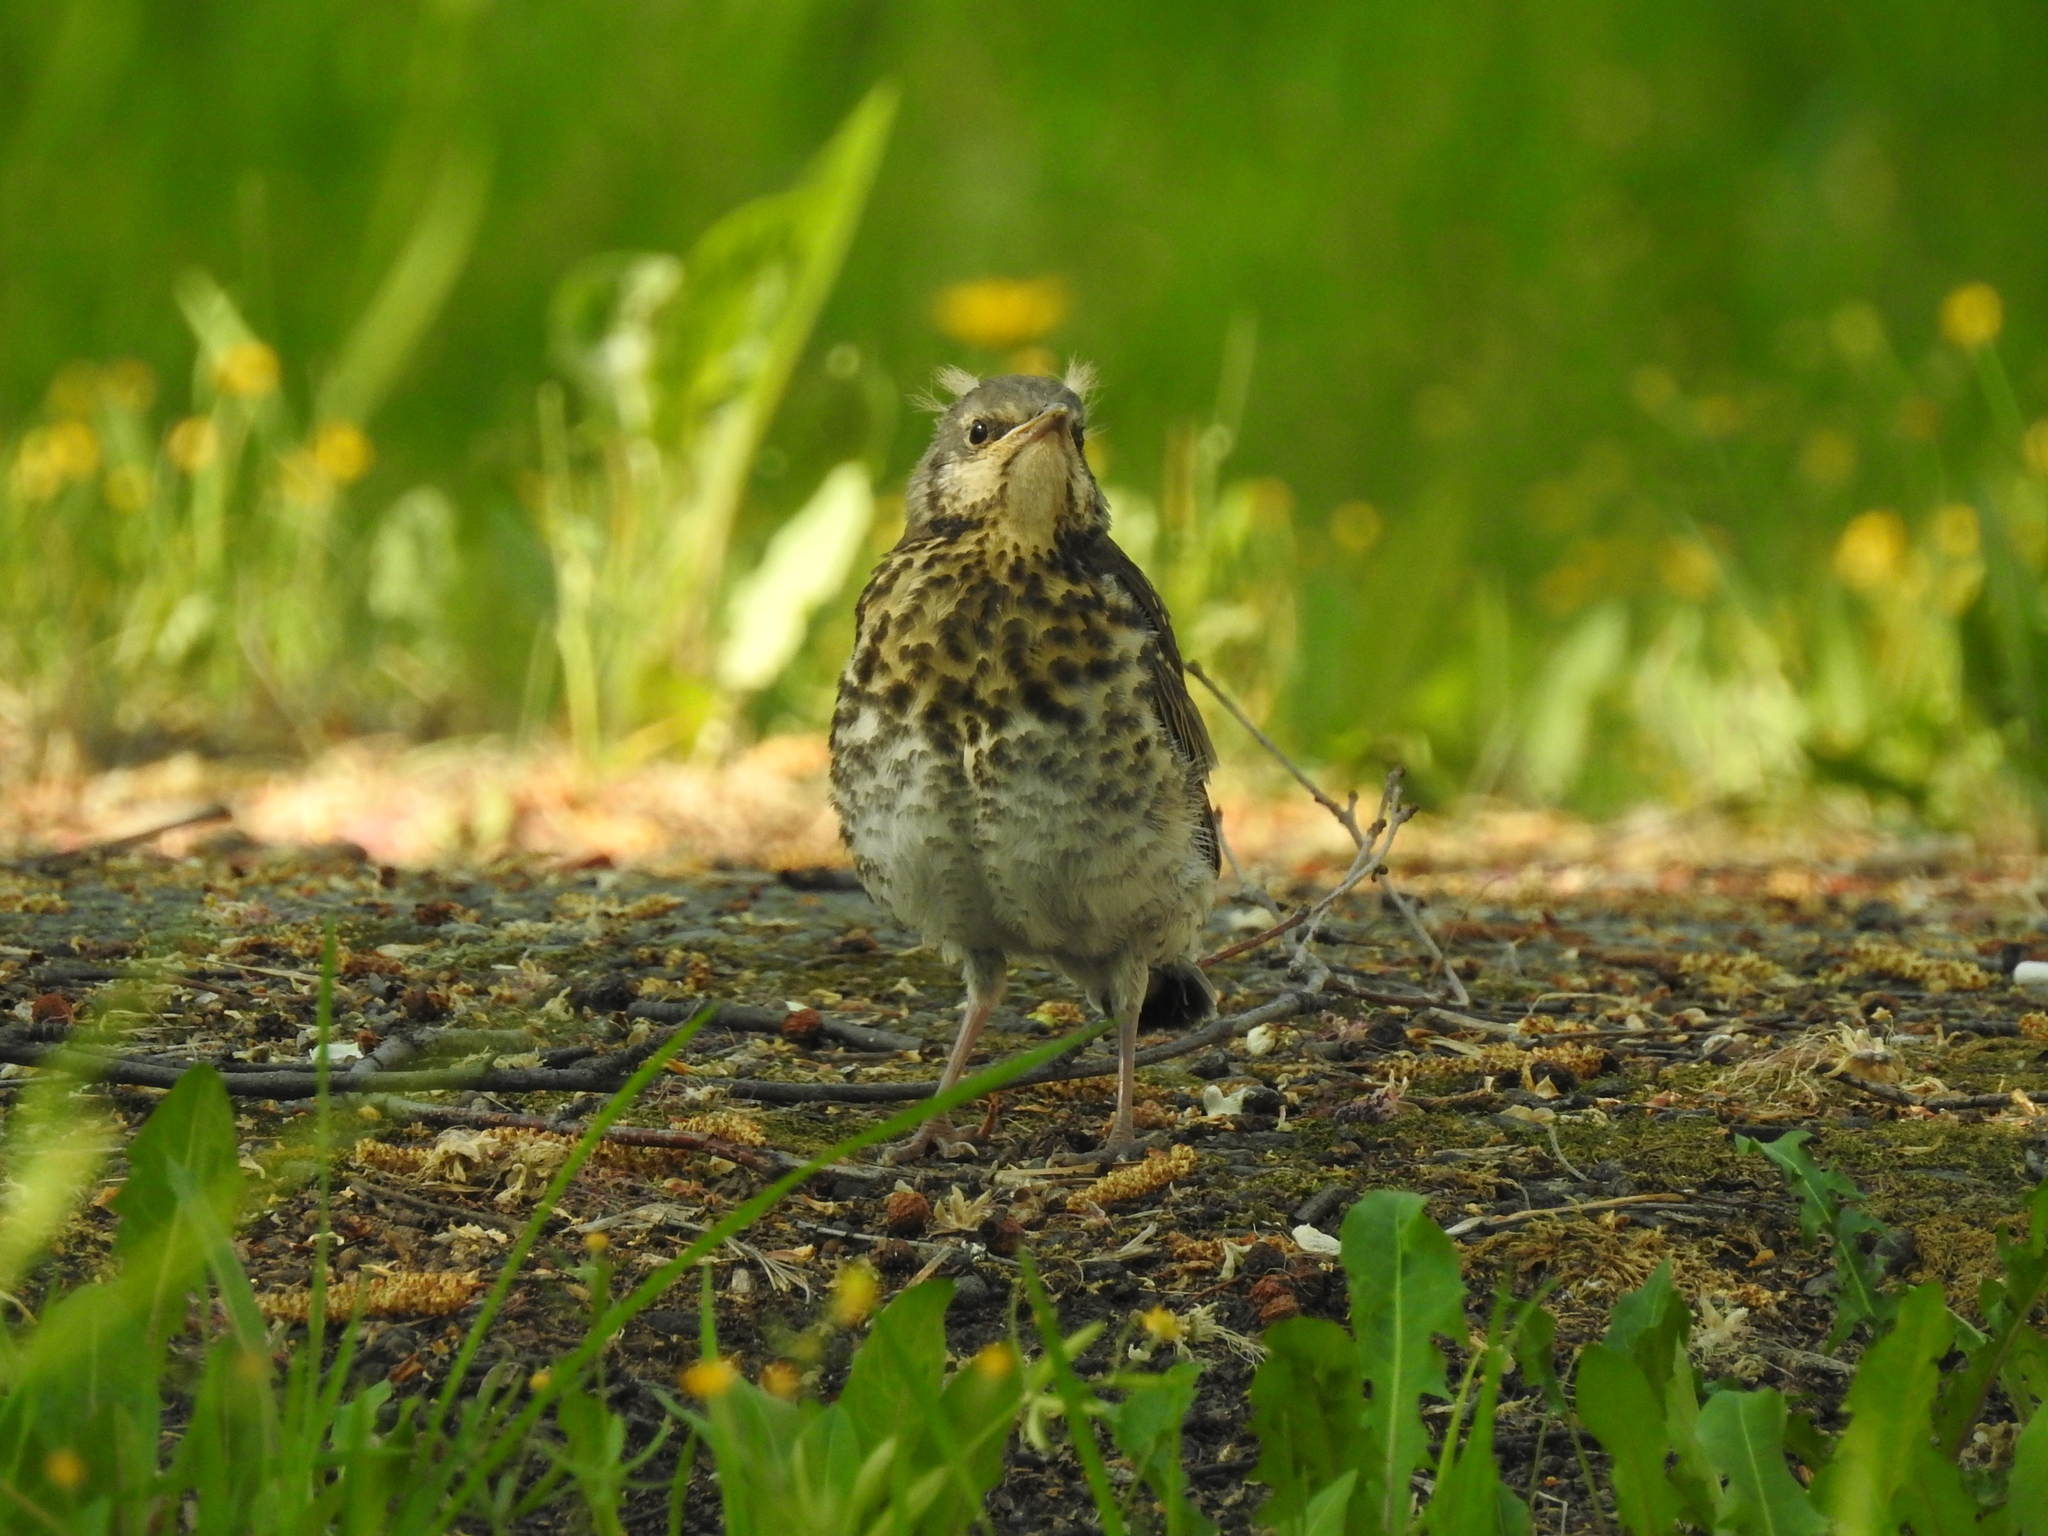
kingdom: Animalia
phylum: Chordata
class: Aves
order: Passeriformes
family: Turdidae
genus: Turdus
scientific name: Turdus pilaris
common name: Fieldfare
